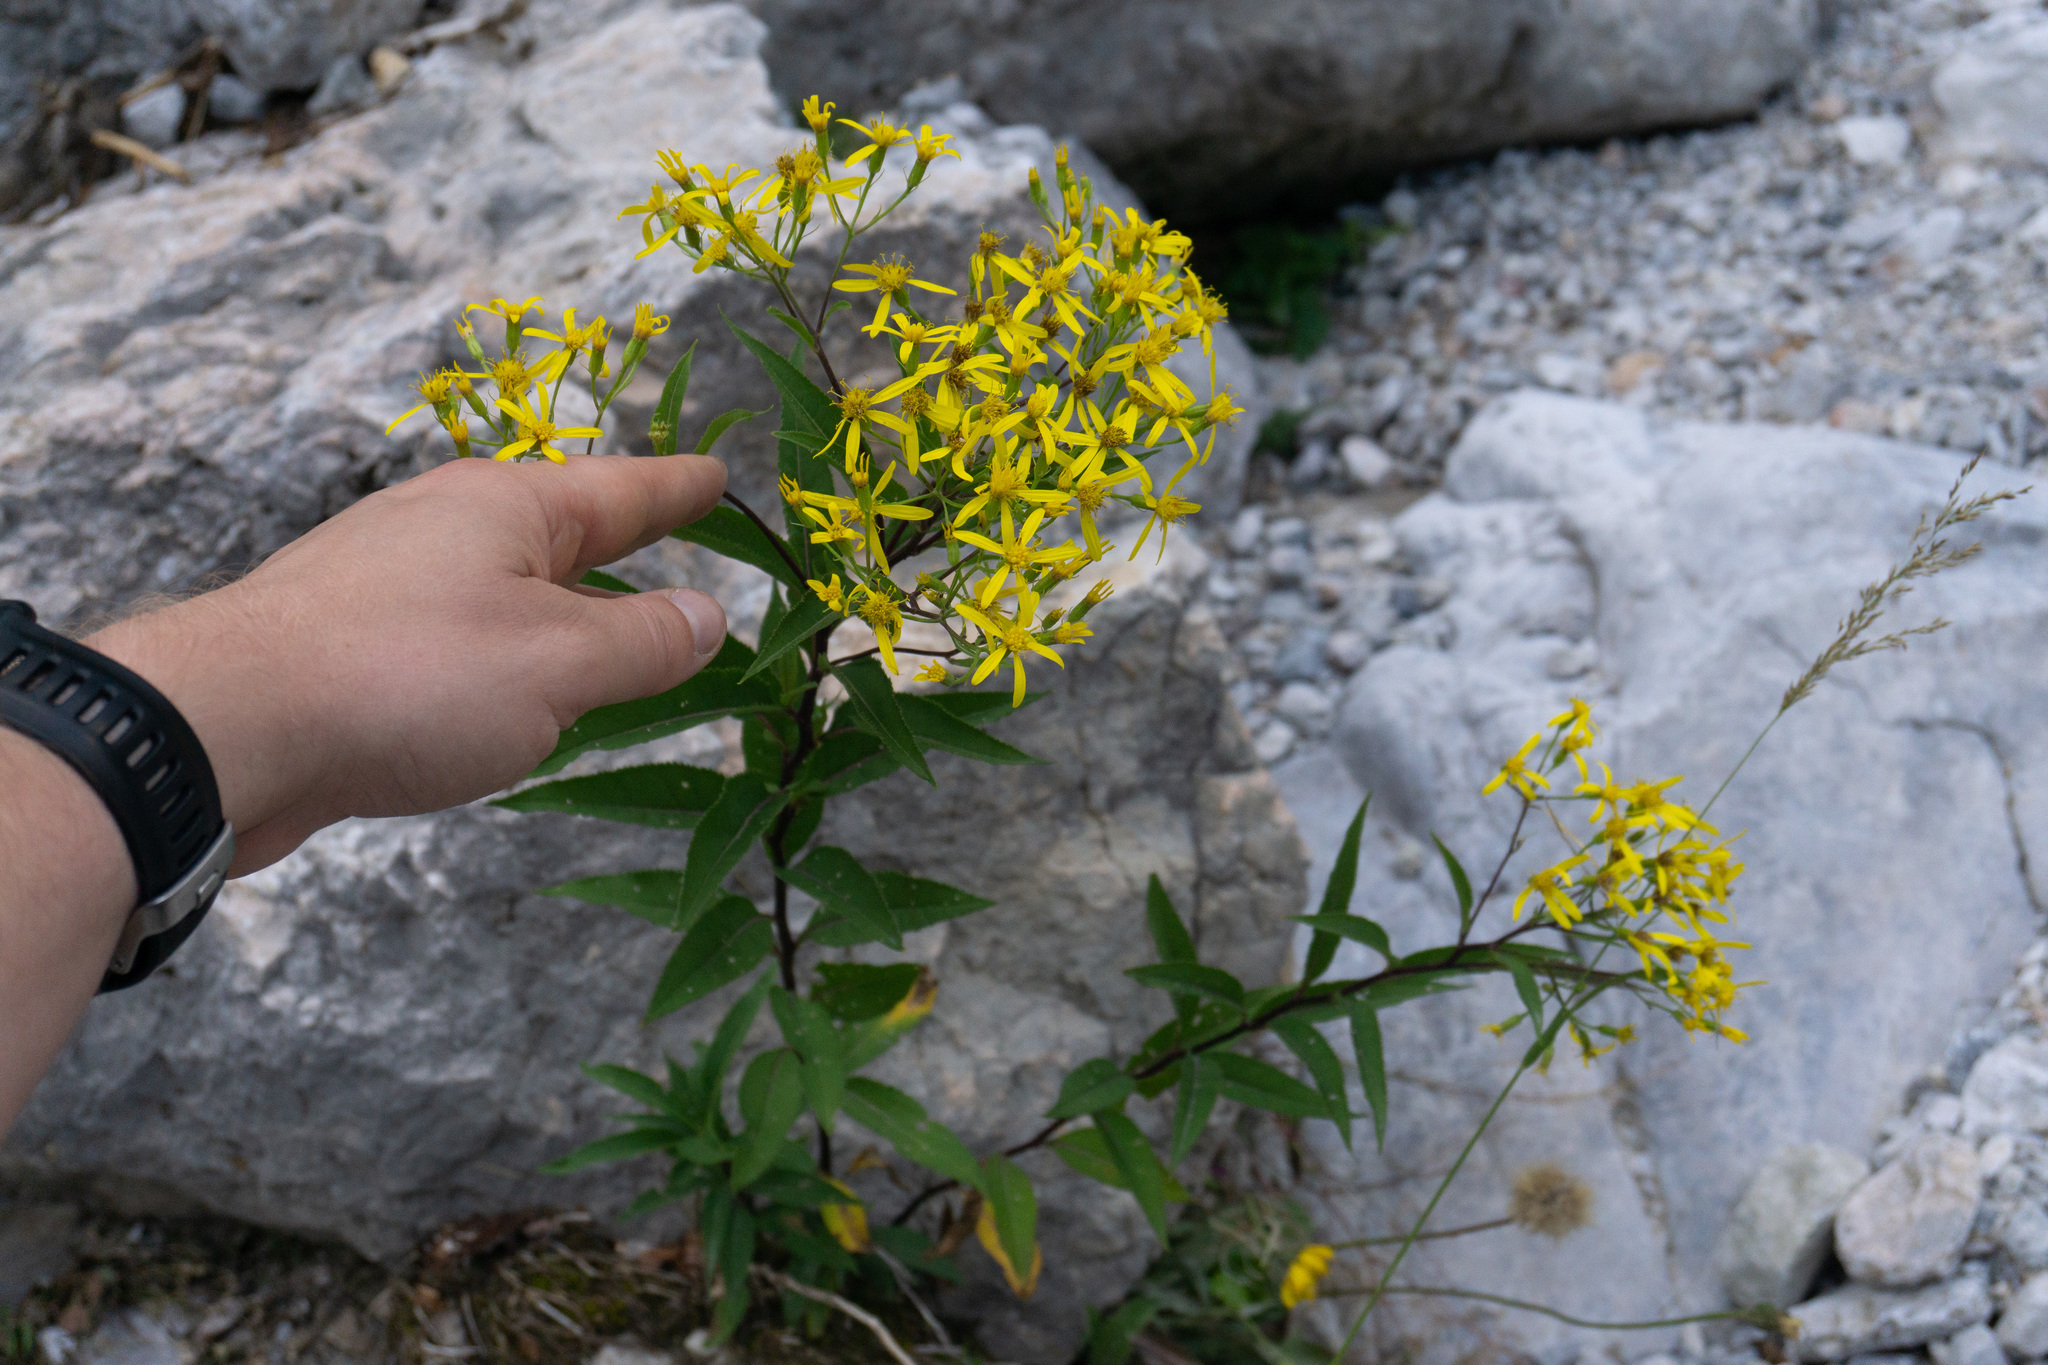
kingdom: Plantae
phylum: Tracheophyta
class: Magnoliopsida
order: Asterales
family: Asteraceae
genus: Senecio
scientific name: Senecio ovatus
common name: Wood ragwort
